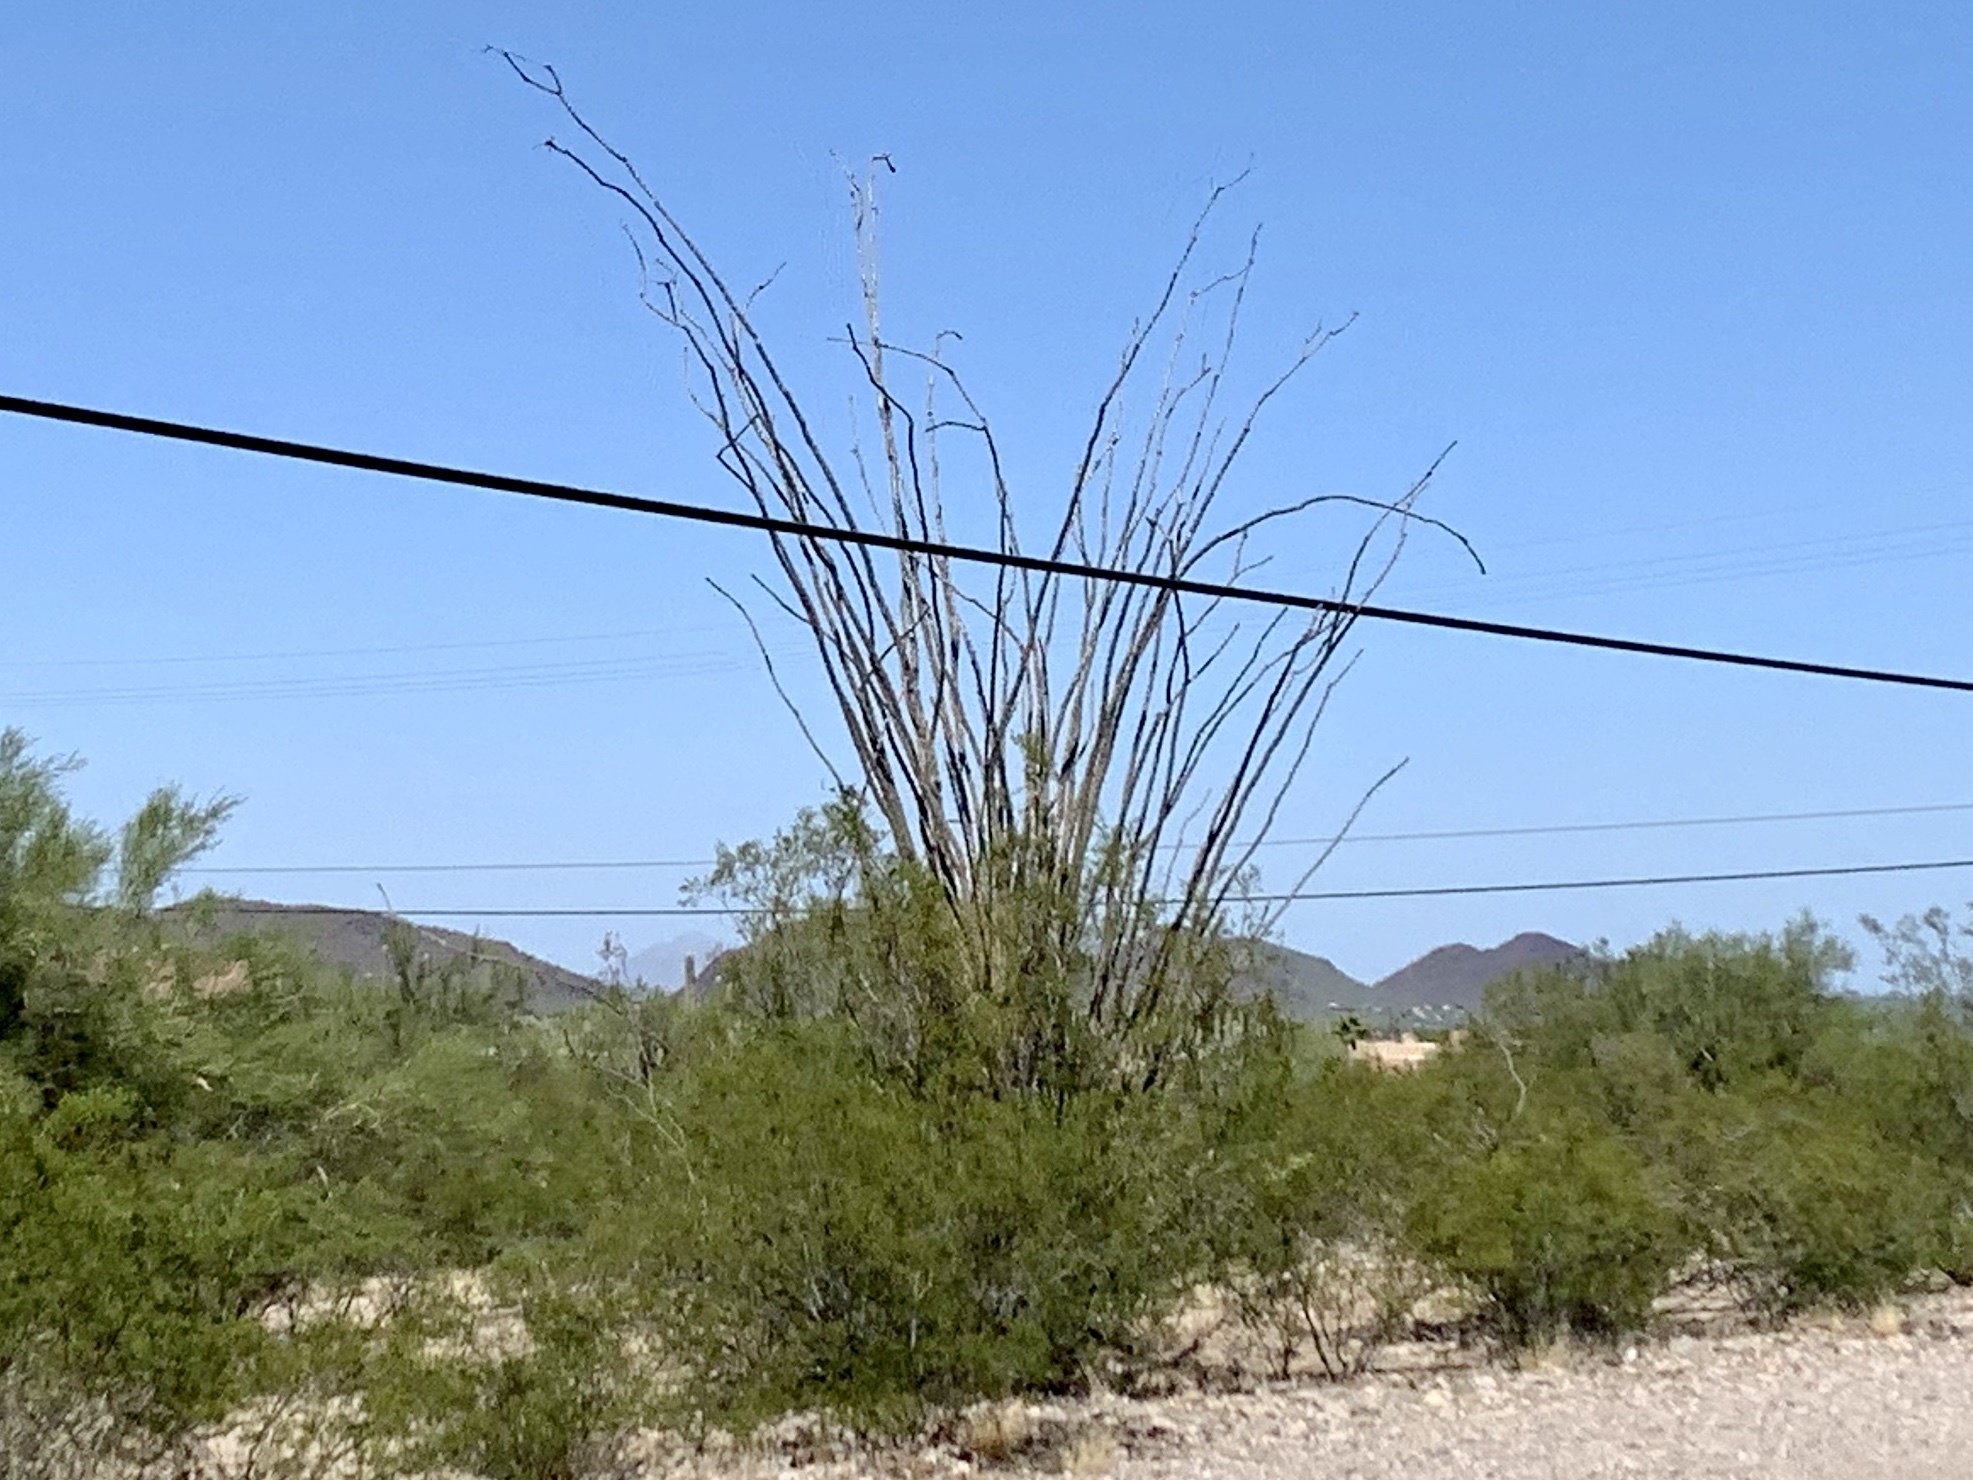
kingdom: Plantae
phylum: Tracheophyta
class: Magnoliopsida
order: Ericales
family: Fouquieriaceae
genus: Fouquieria
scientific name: Fouquieria splendens
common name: Vine-cactus
